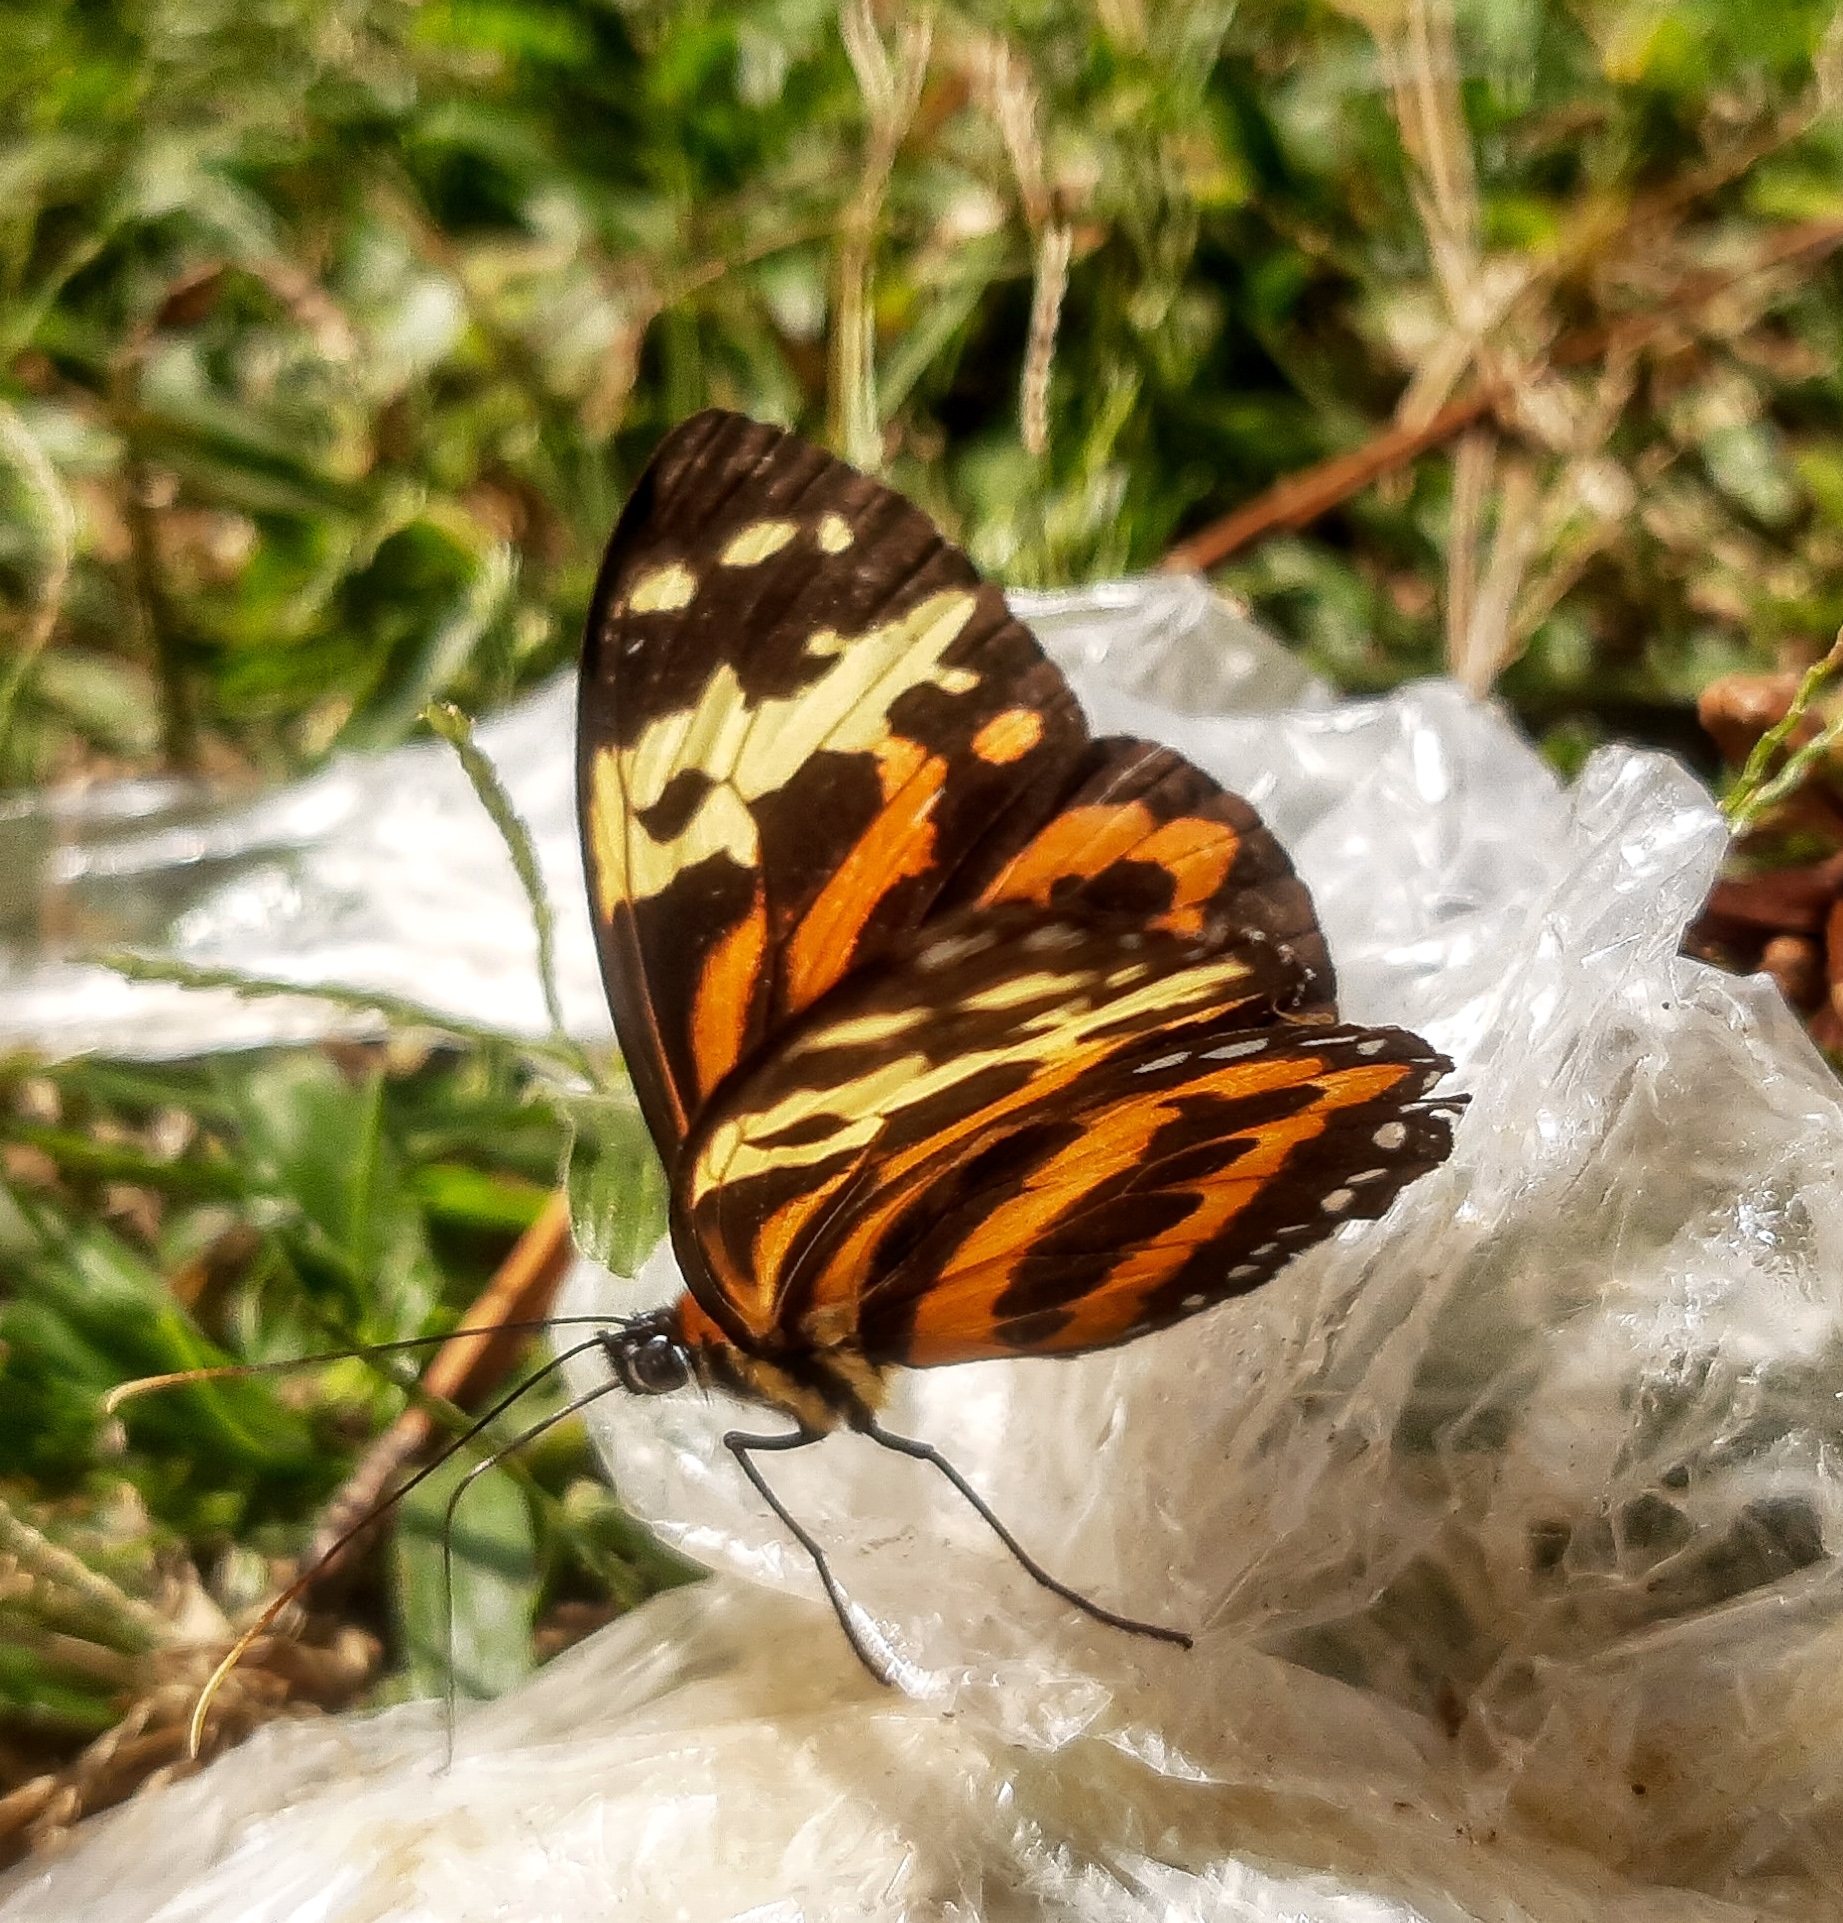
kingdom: Animalia
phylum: Arthropoda
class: Insecta
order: Lepidoptera
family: Nymphalidae
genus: Tithorea
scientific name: Tithorea harmonia
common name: Harmonia tigerwing
